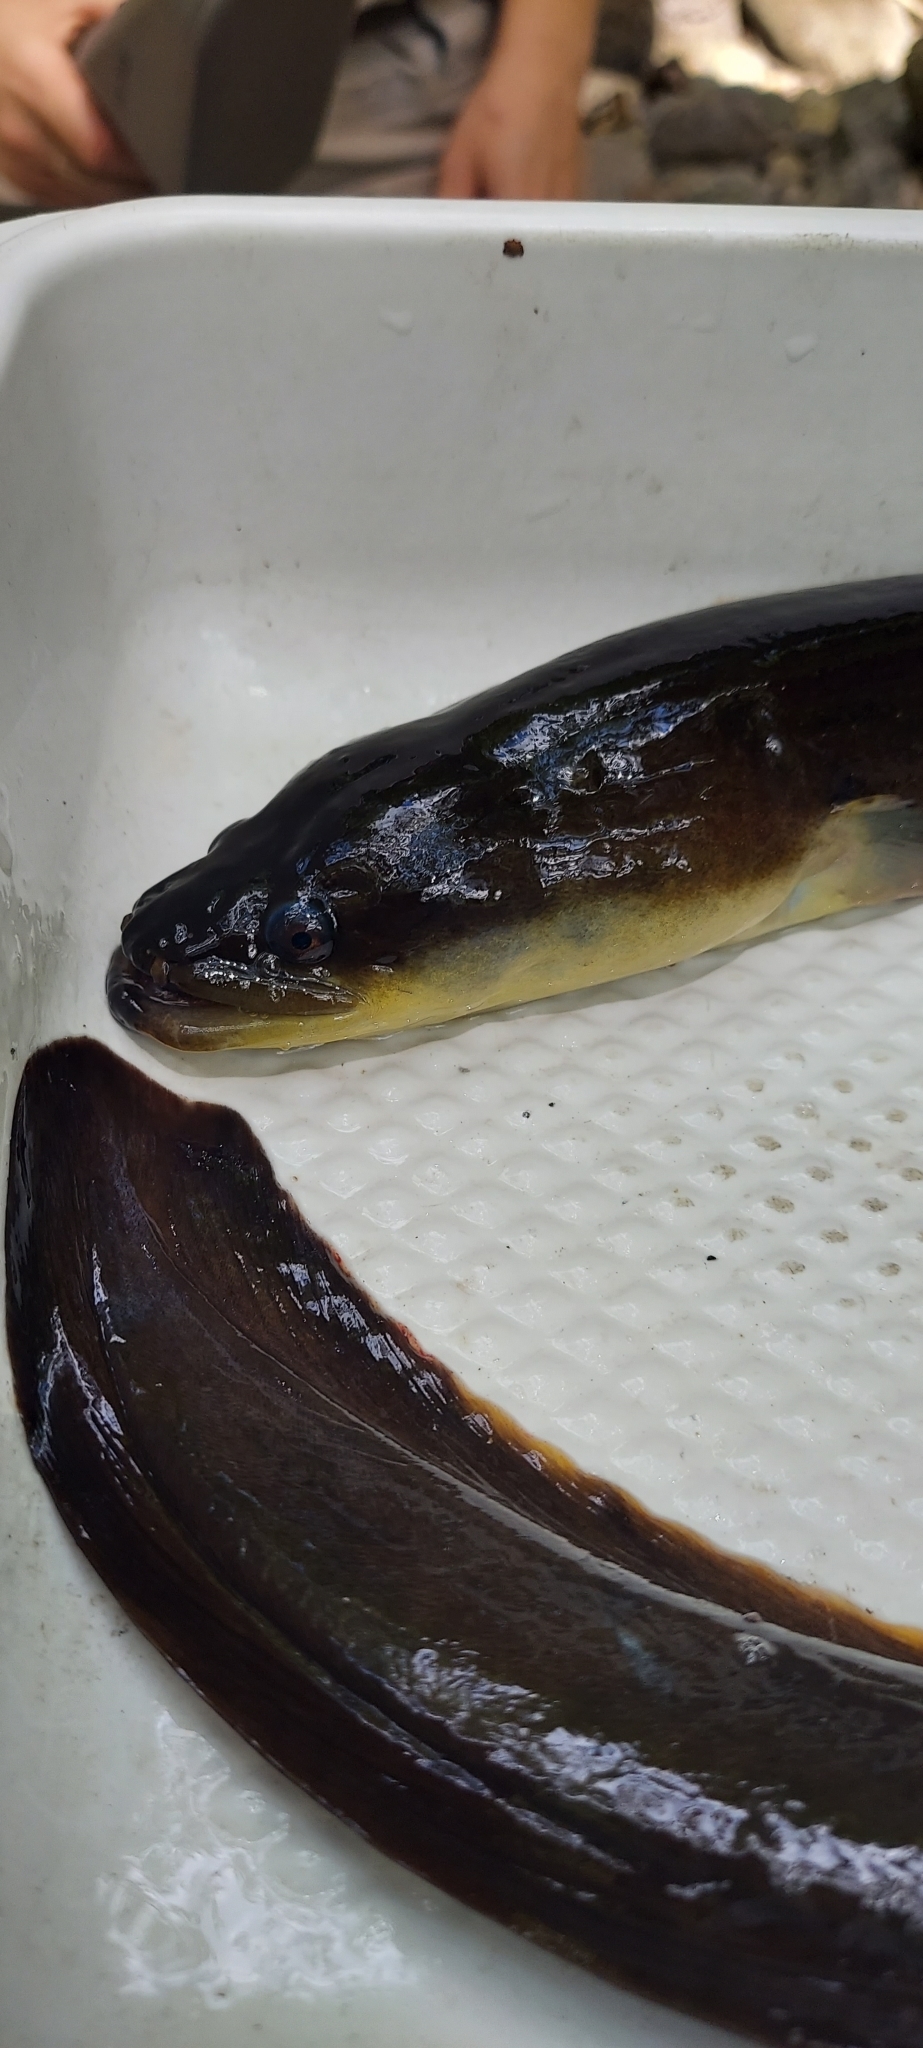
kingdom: Animalia
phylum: Chordata
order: Anguilliformes
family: Anguillidae
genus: Anguilla
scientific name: Anguilla rostrata
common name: American eel
